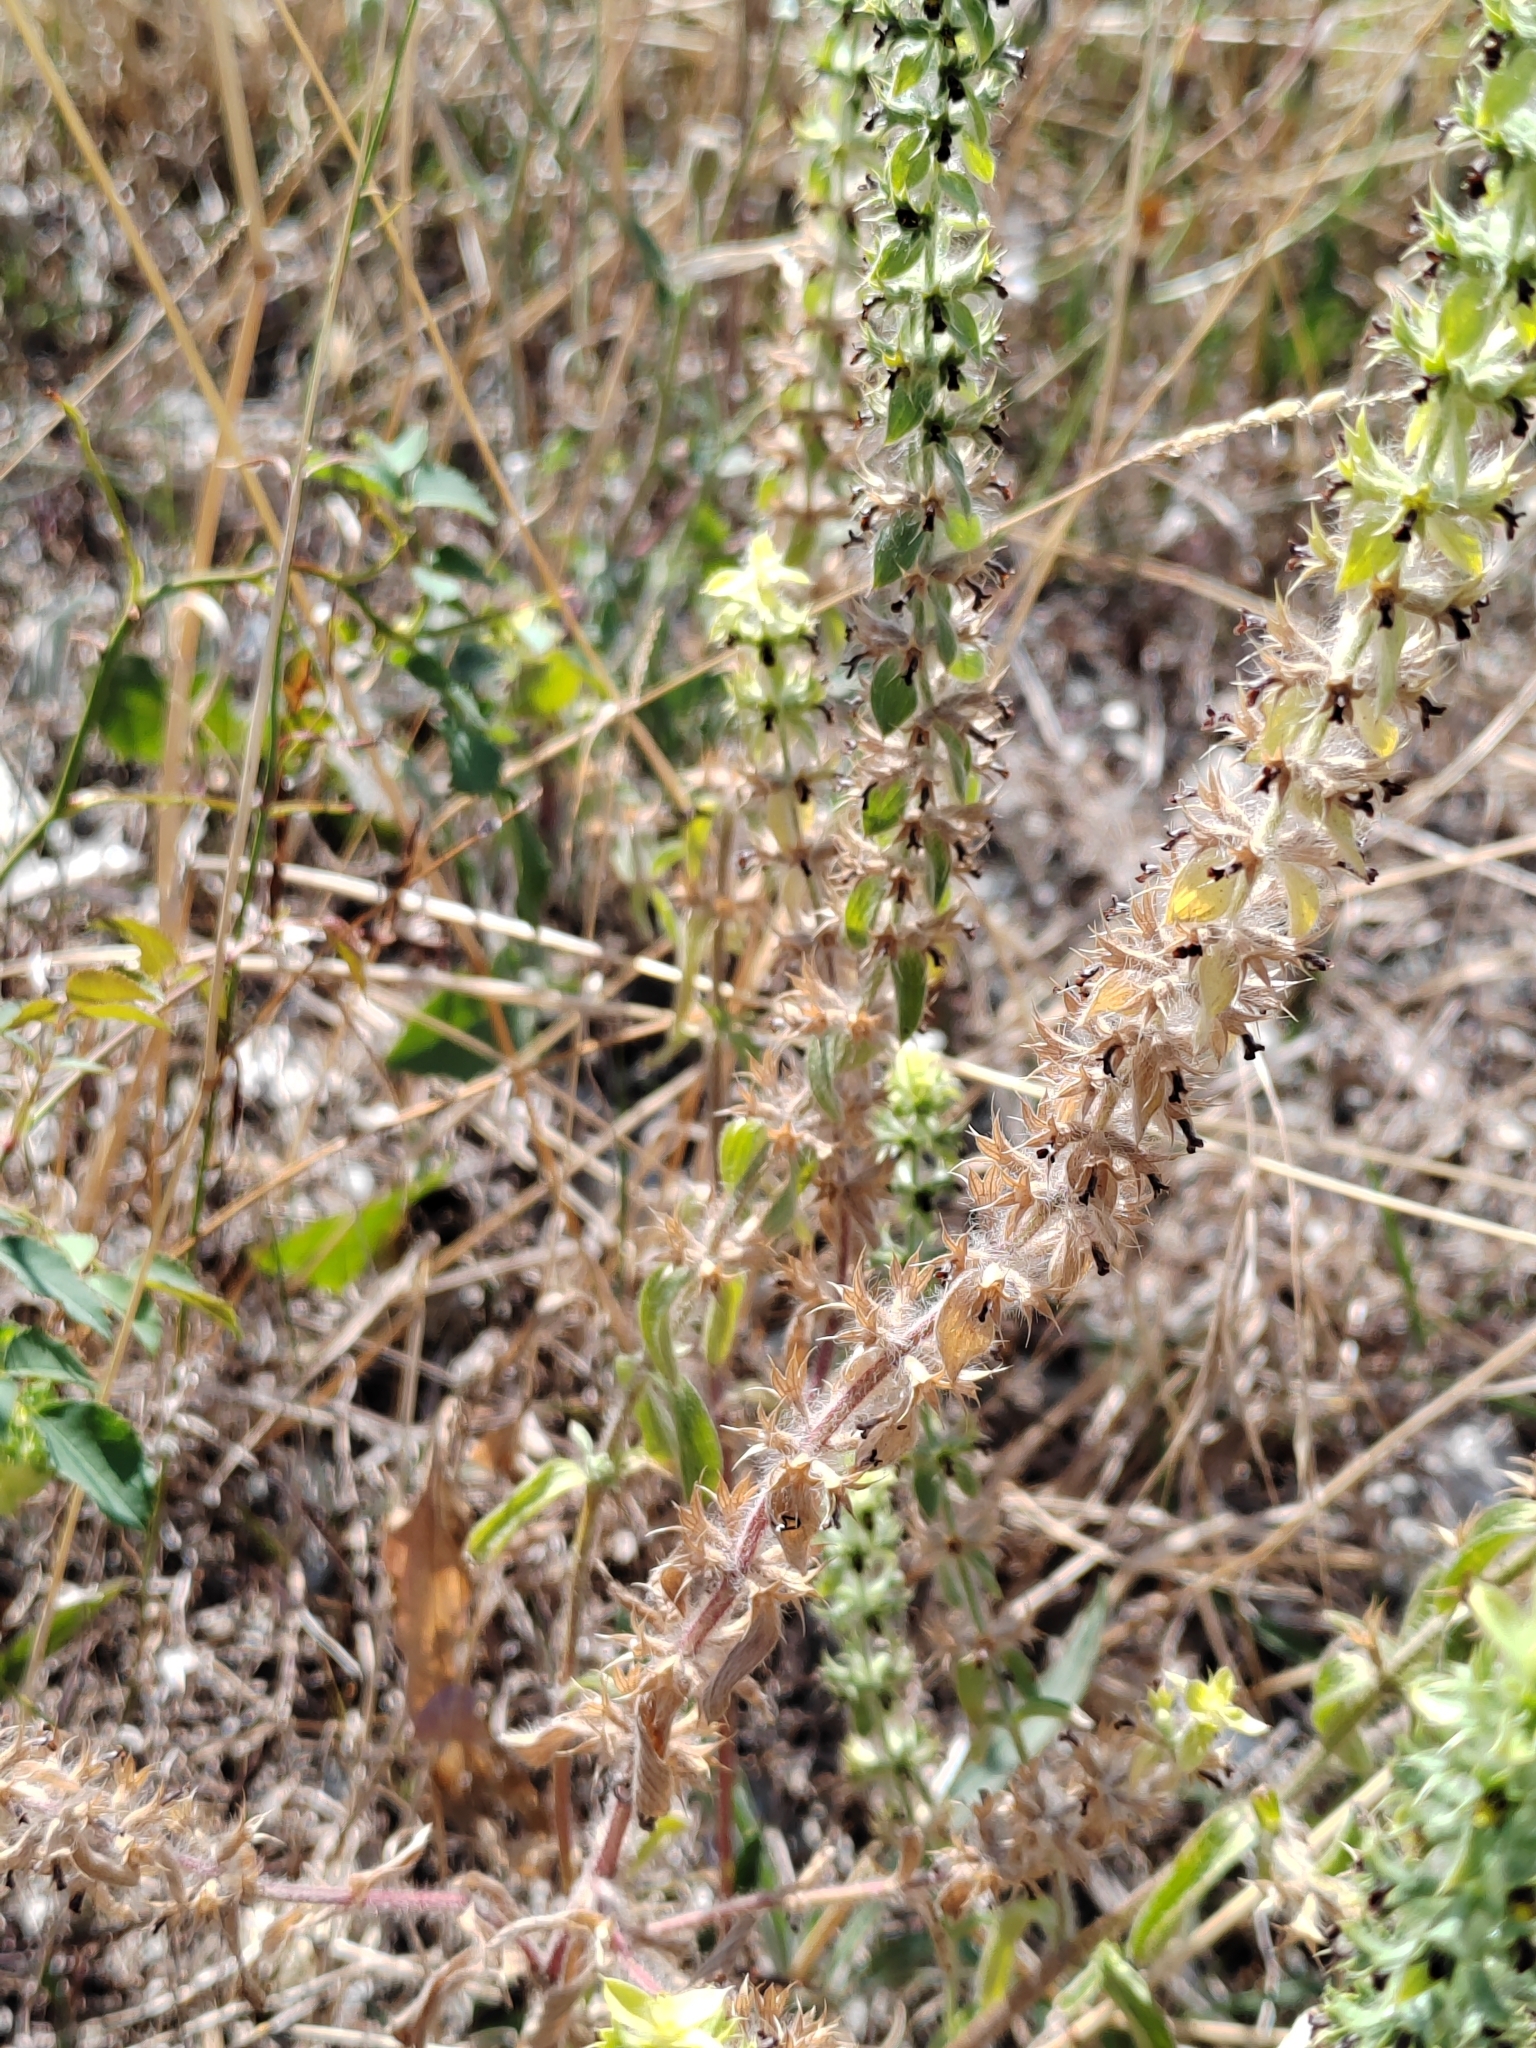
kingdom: Plantae
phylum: Tracheophyta
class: Magnoliopsida
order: Lamiales
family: Lamiaceae
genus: Sideritis
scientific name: Sideritis montana
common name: Mountain ironwort
